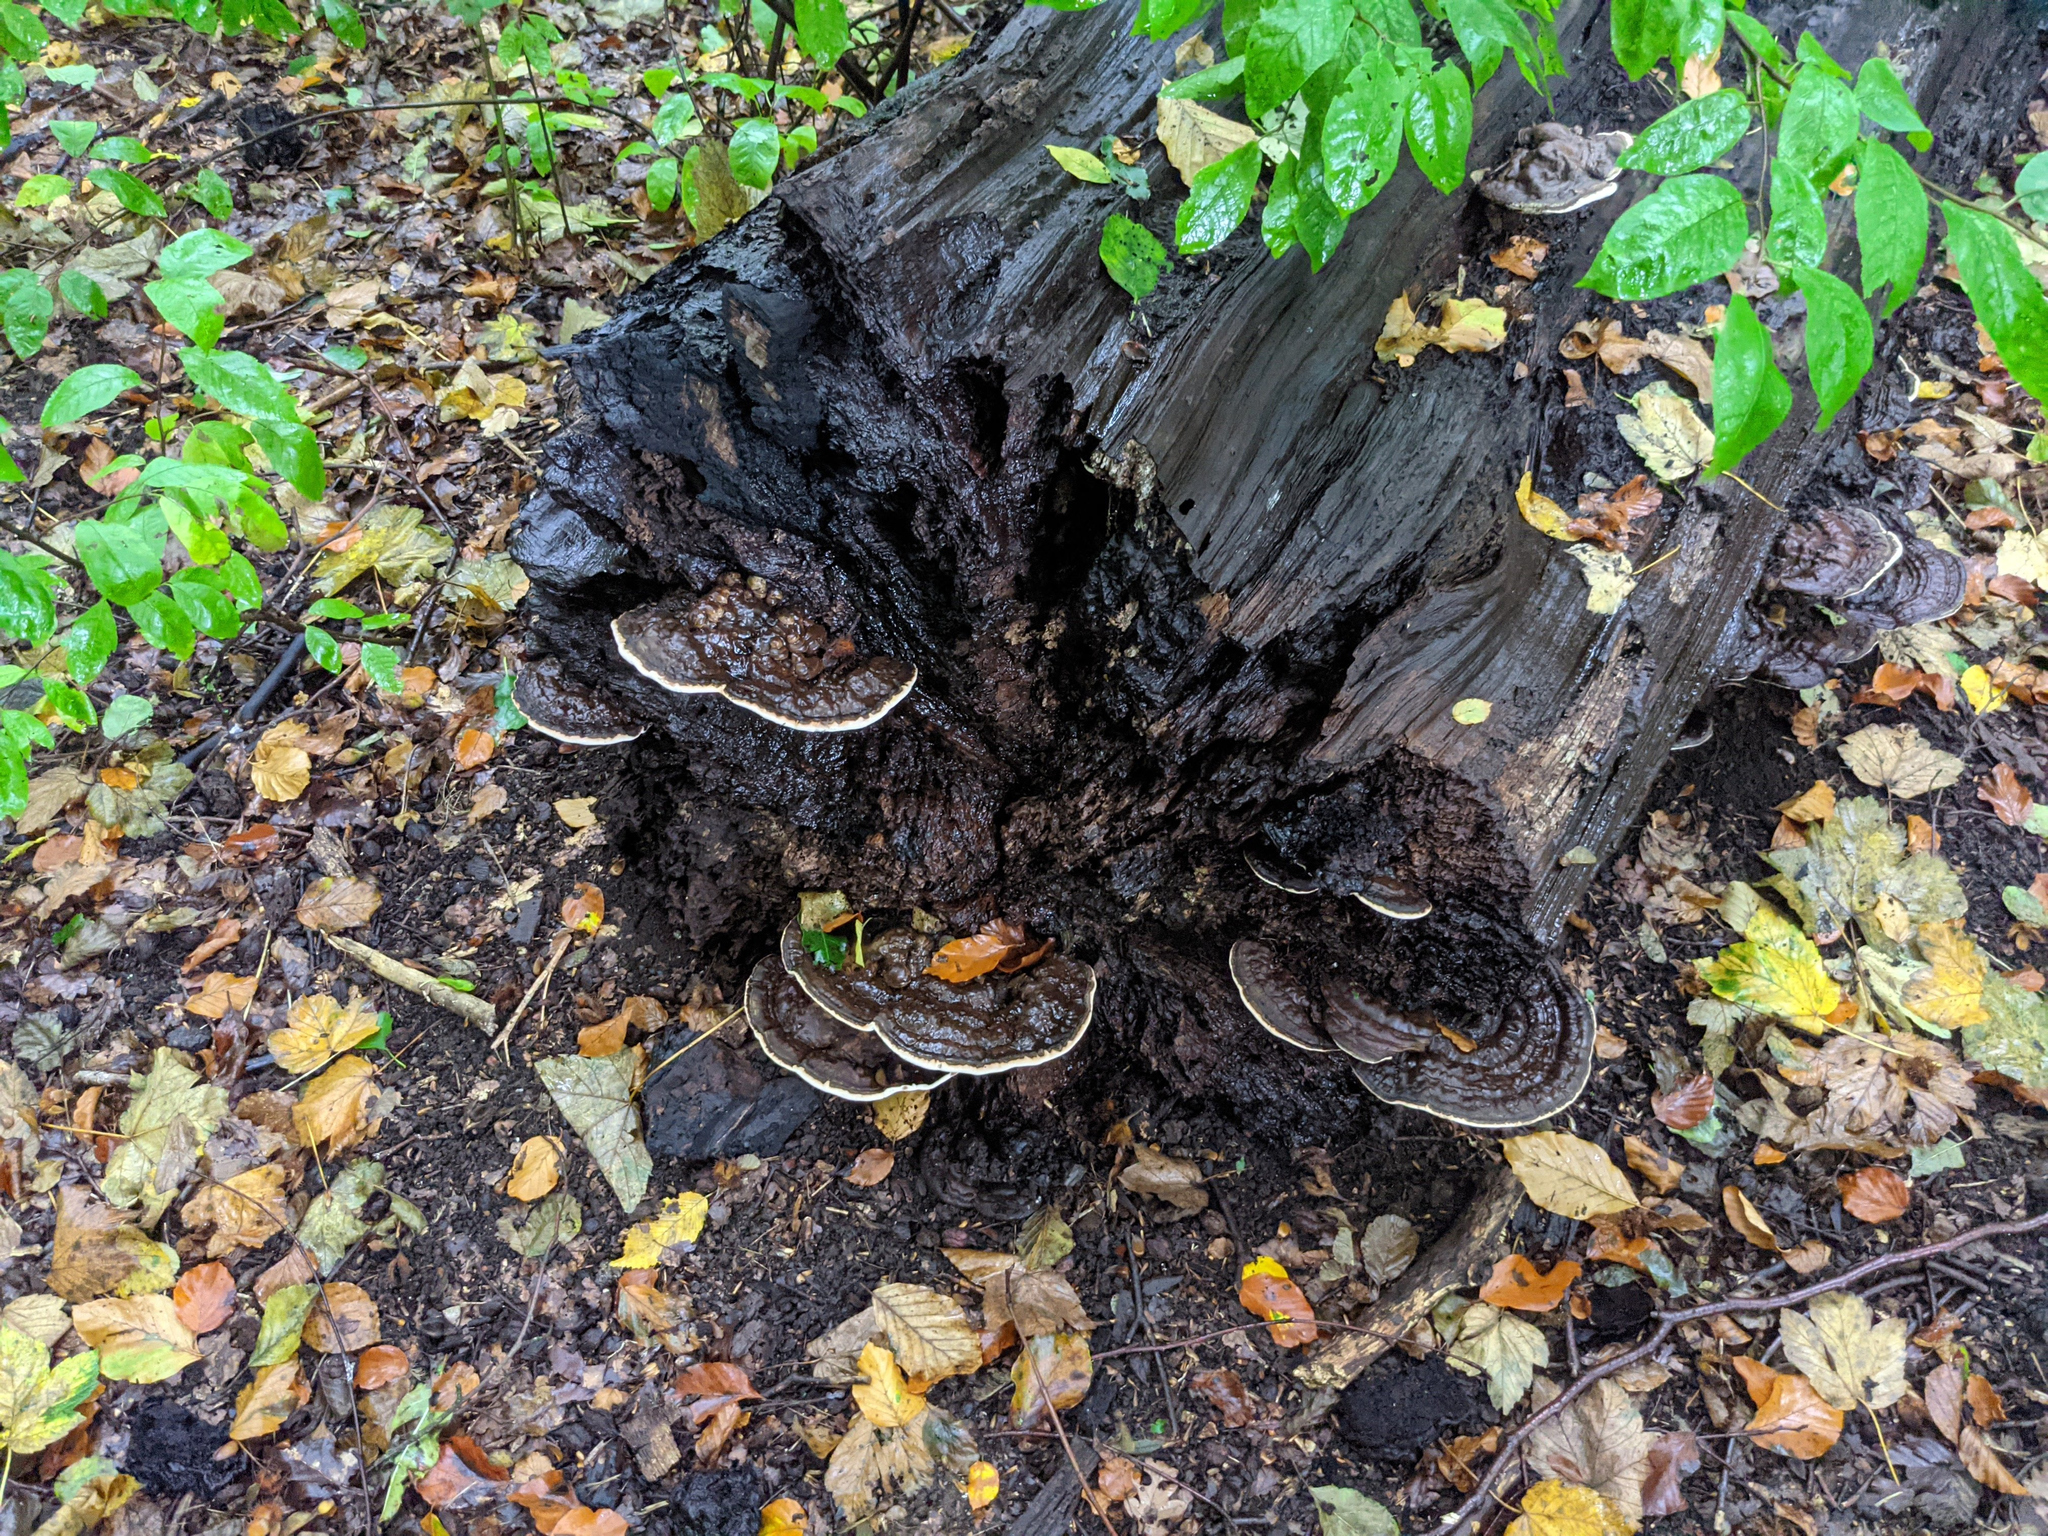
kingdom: Fungi
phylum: Basidiomycota
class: Agaricomycetes
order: Polyporales
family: Polyporaceae
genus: Ganoderma
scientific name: Ganoderma applanatum
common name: Artist's bracket
